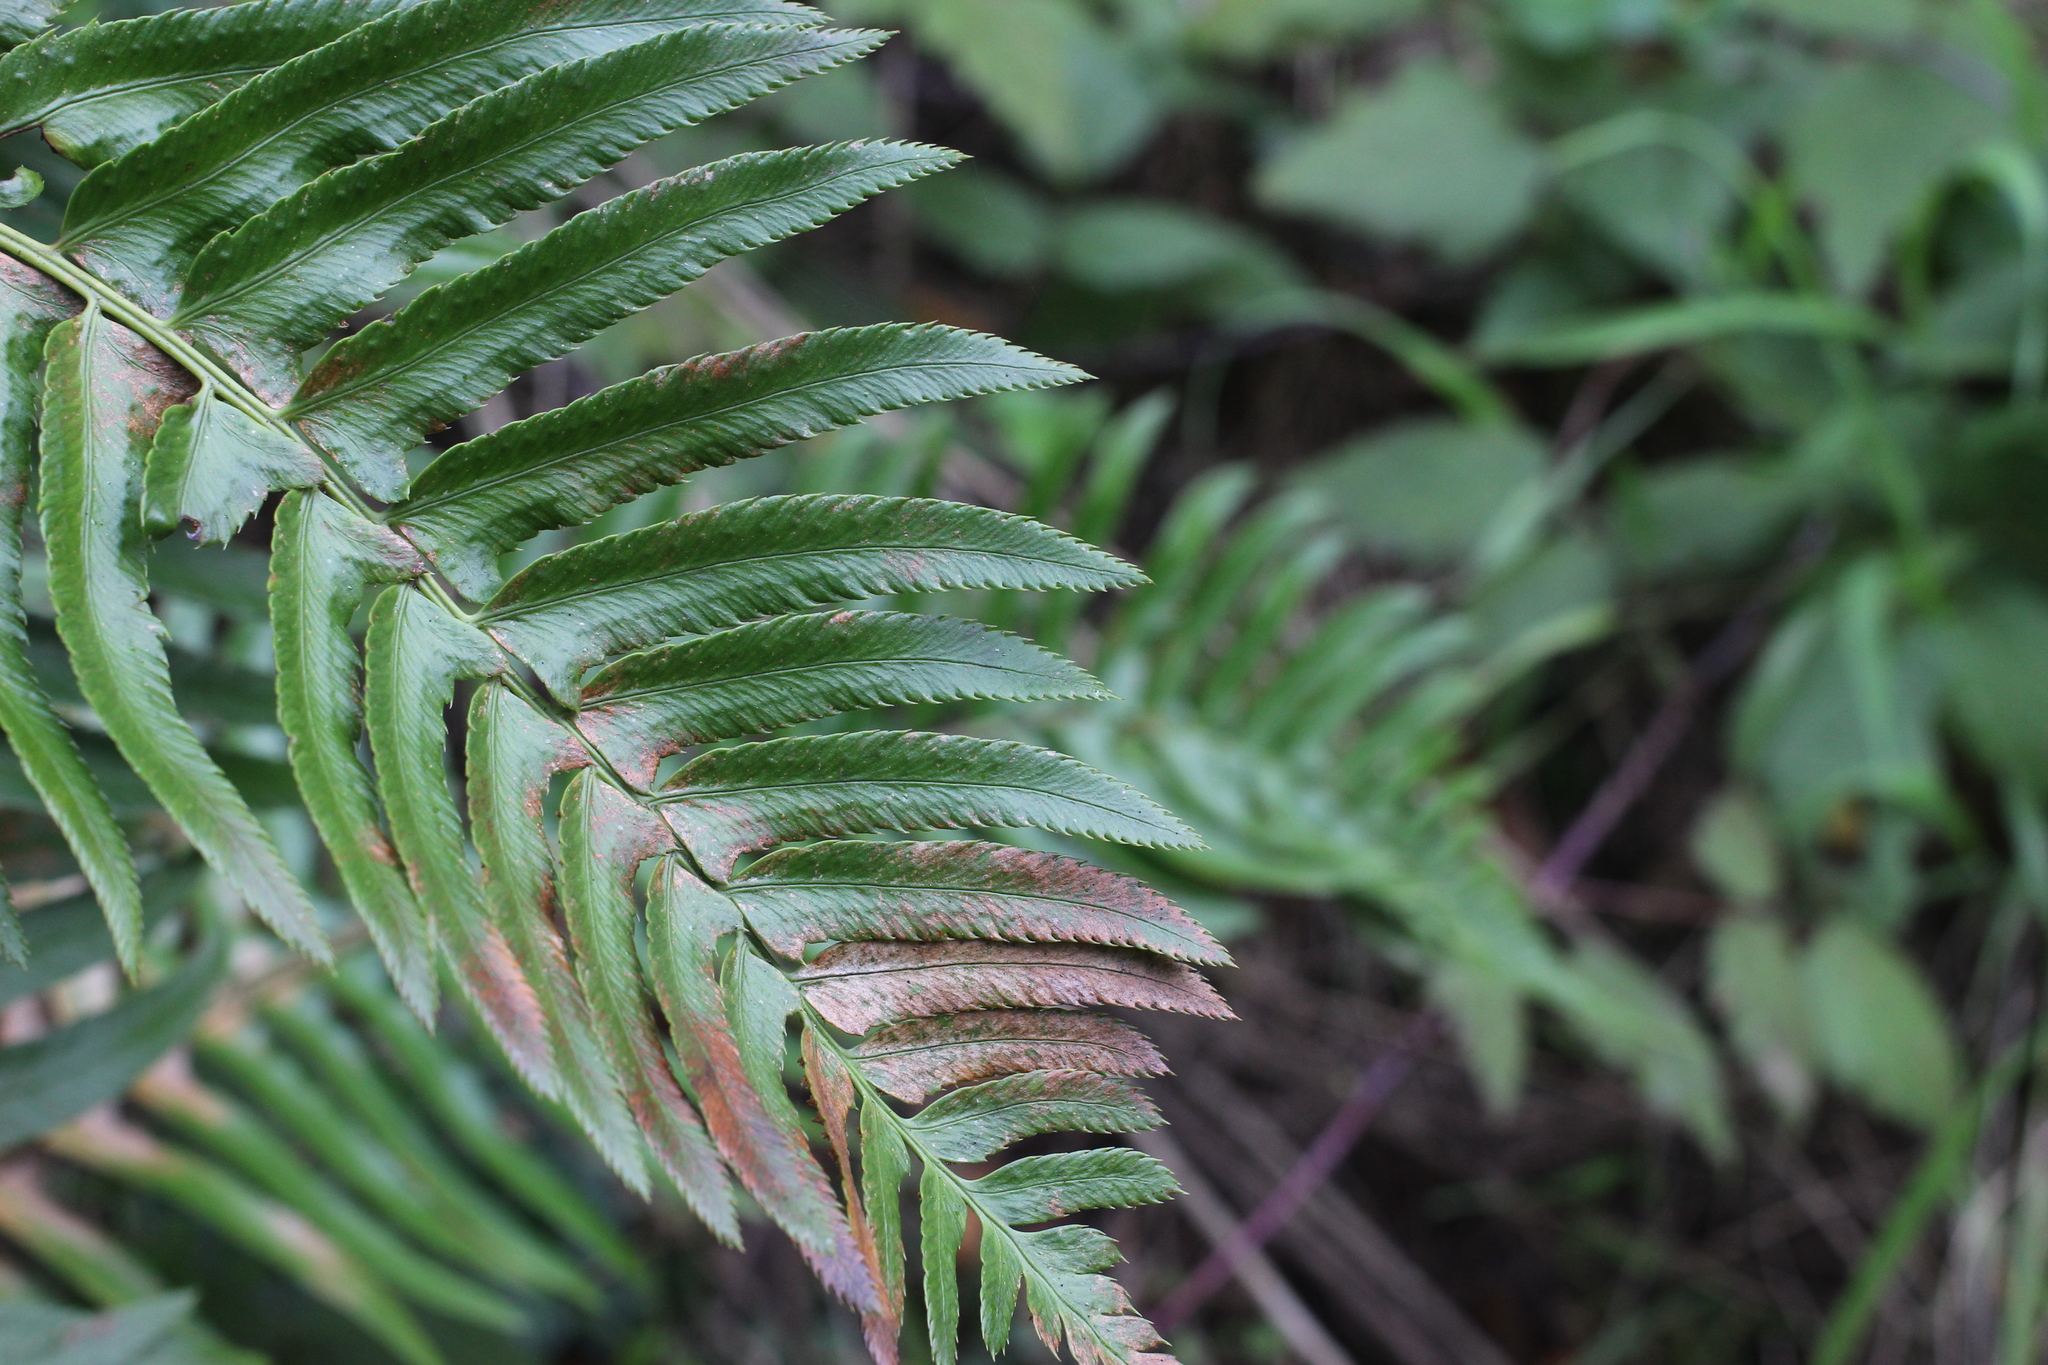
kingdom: Plantae
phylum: Tracheophyta
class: Polypodiopsida
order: Polypodiales
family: Dryopteridaceae
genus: Polystichum
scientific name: Polystichum munitum
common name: Western sword-fern
